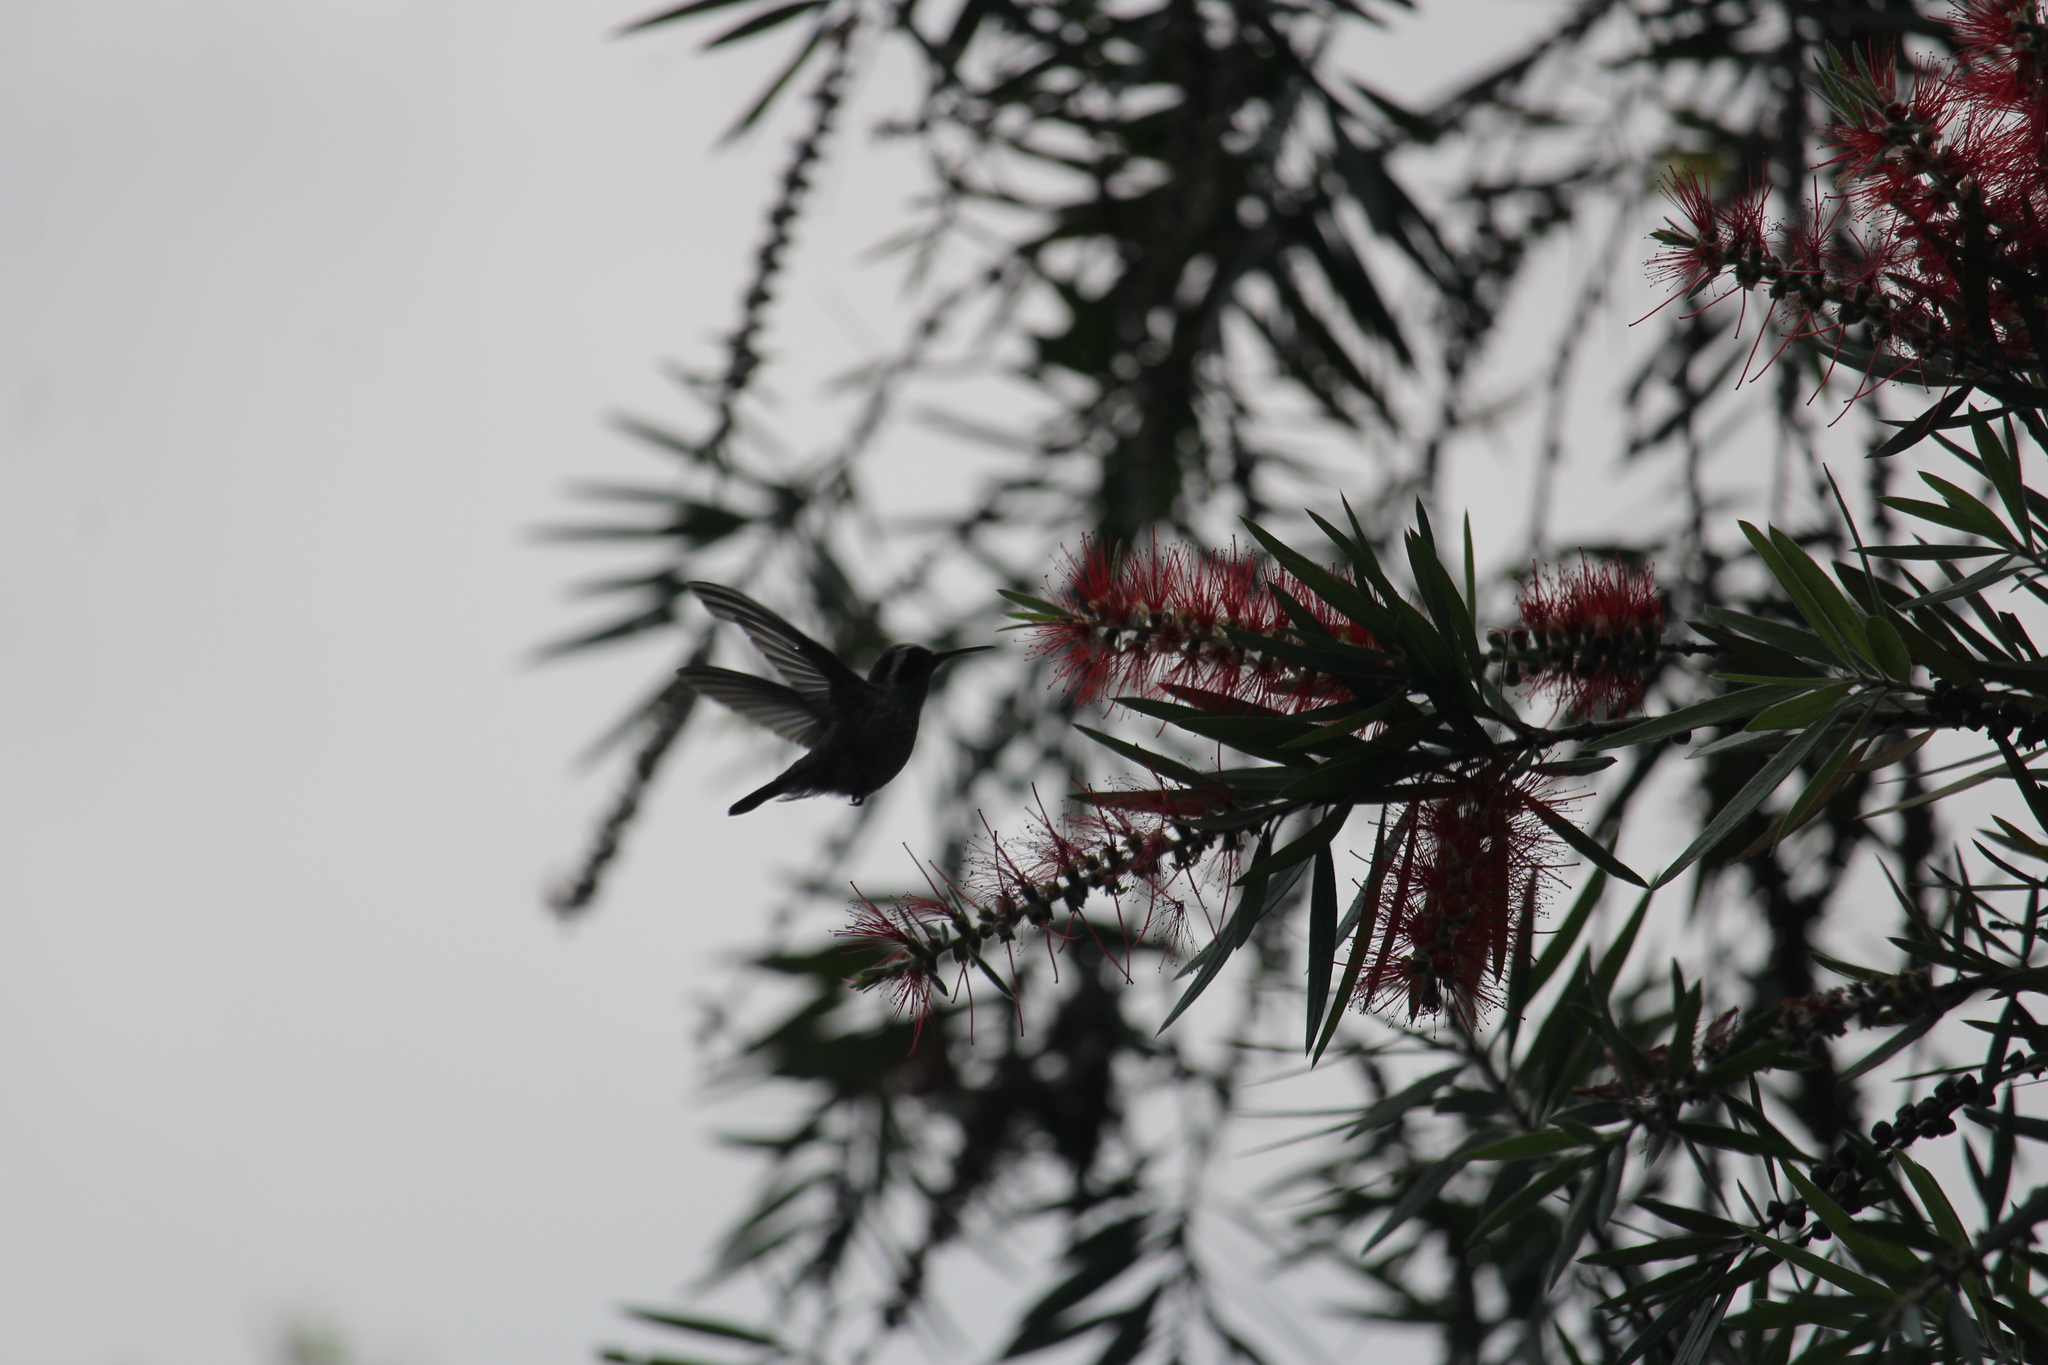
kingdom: Animalia
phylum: Chordata
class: Aves
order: Apodiformes
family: Trochilidae
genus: Basilinna
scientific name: Basilinna leucotis
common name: White-eared hummingbird
